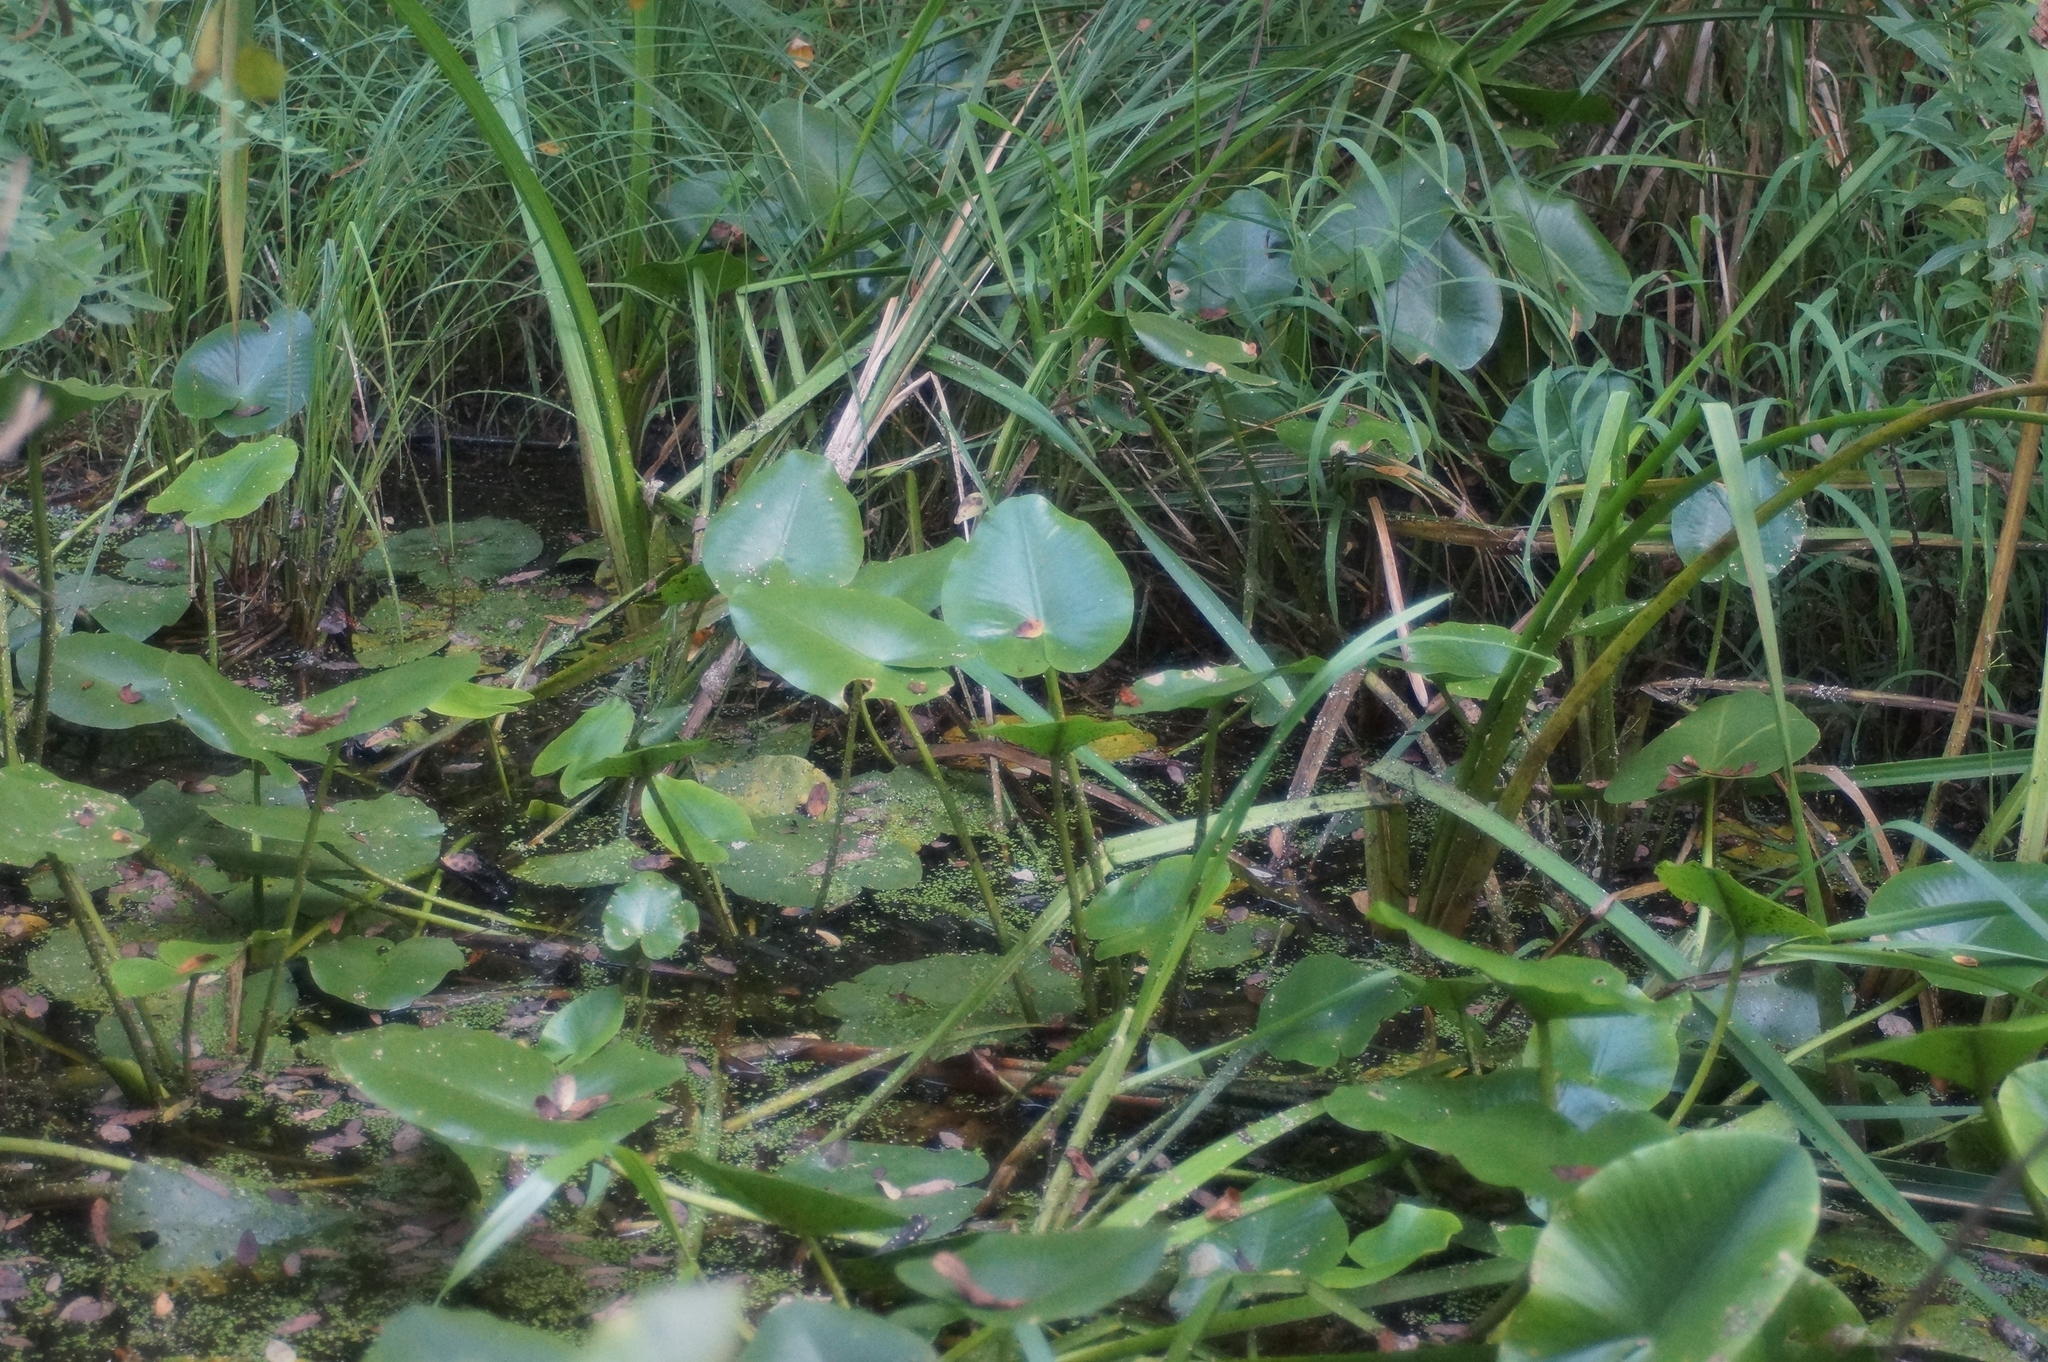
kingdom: Plantae
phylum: Tracheophyta
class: Magnoliopsida
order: Nymphaeales
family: Nymphaeaceae
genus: Nuphar
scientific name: Nuphar lutea
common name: Yellow water-lily
